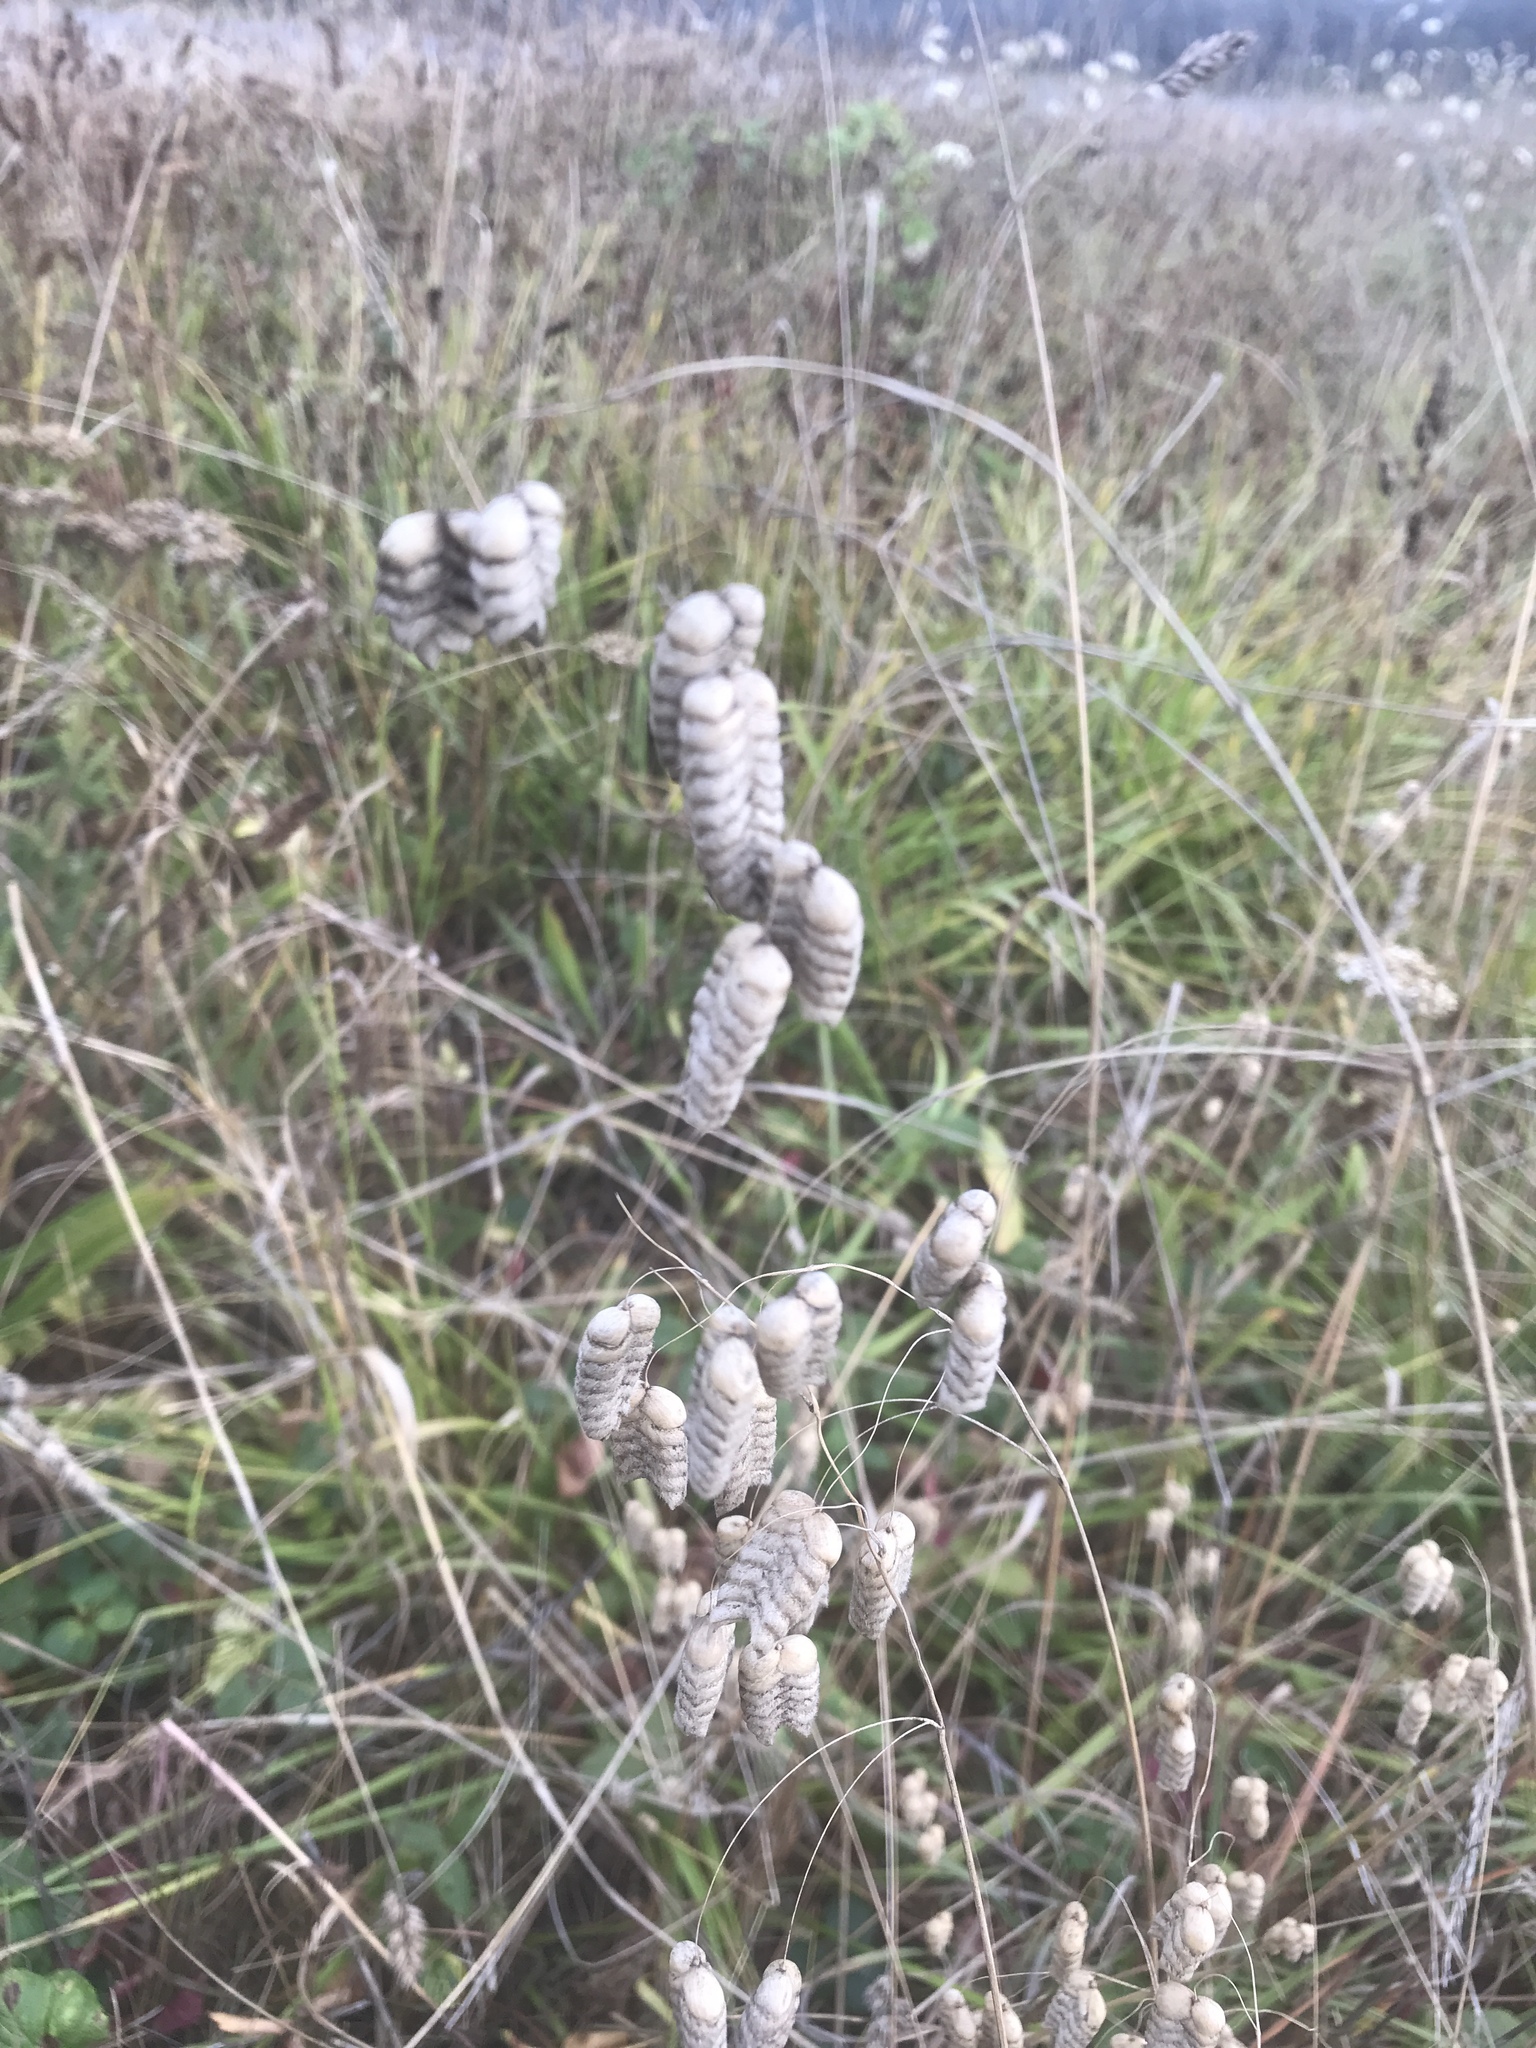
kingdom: Plantae
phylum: Tracheophyta
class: Liliopsida
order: Poales
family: Poaceae
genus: Briza
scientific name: Briza maxima
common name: Big quakinggrass
